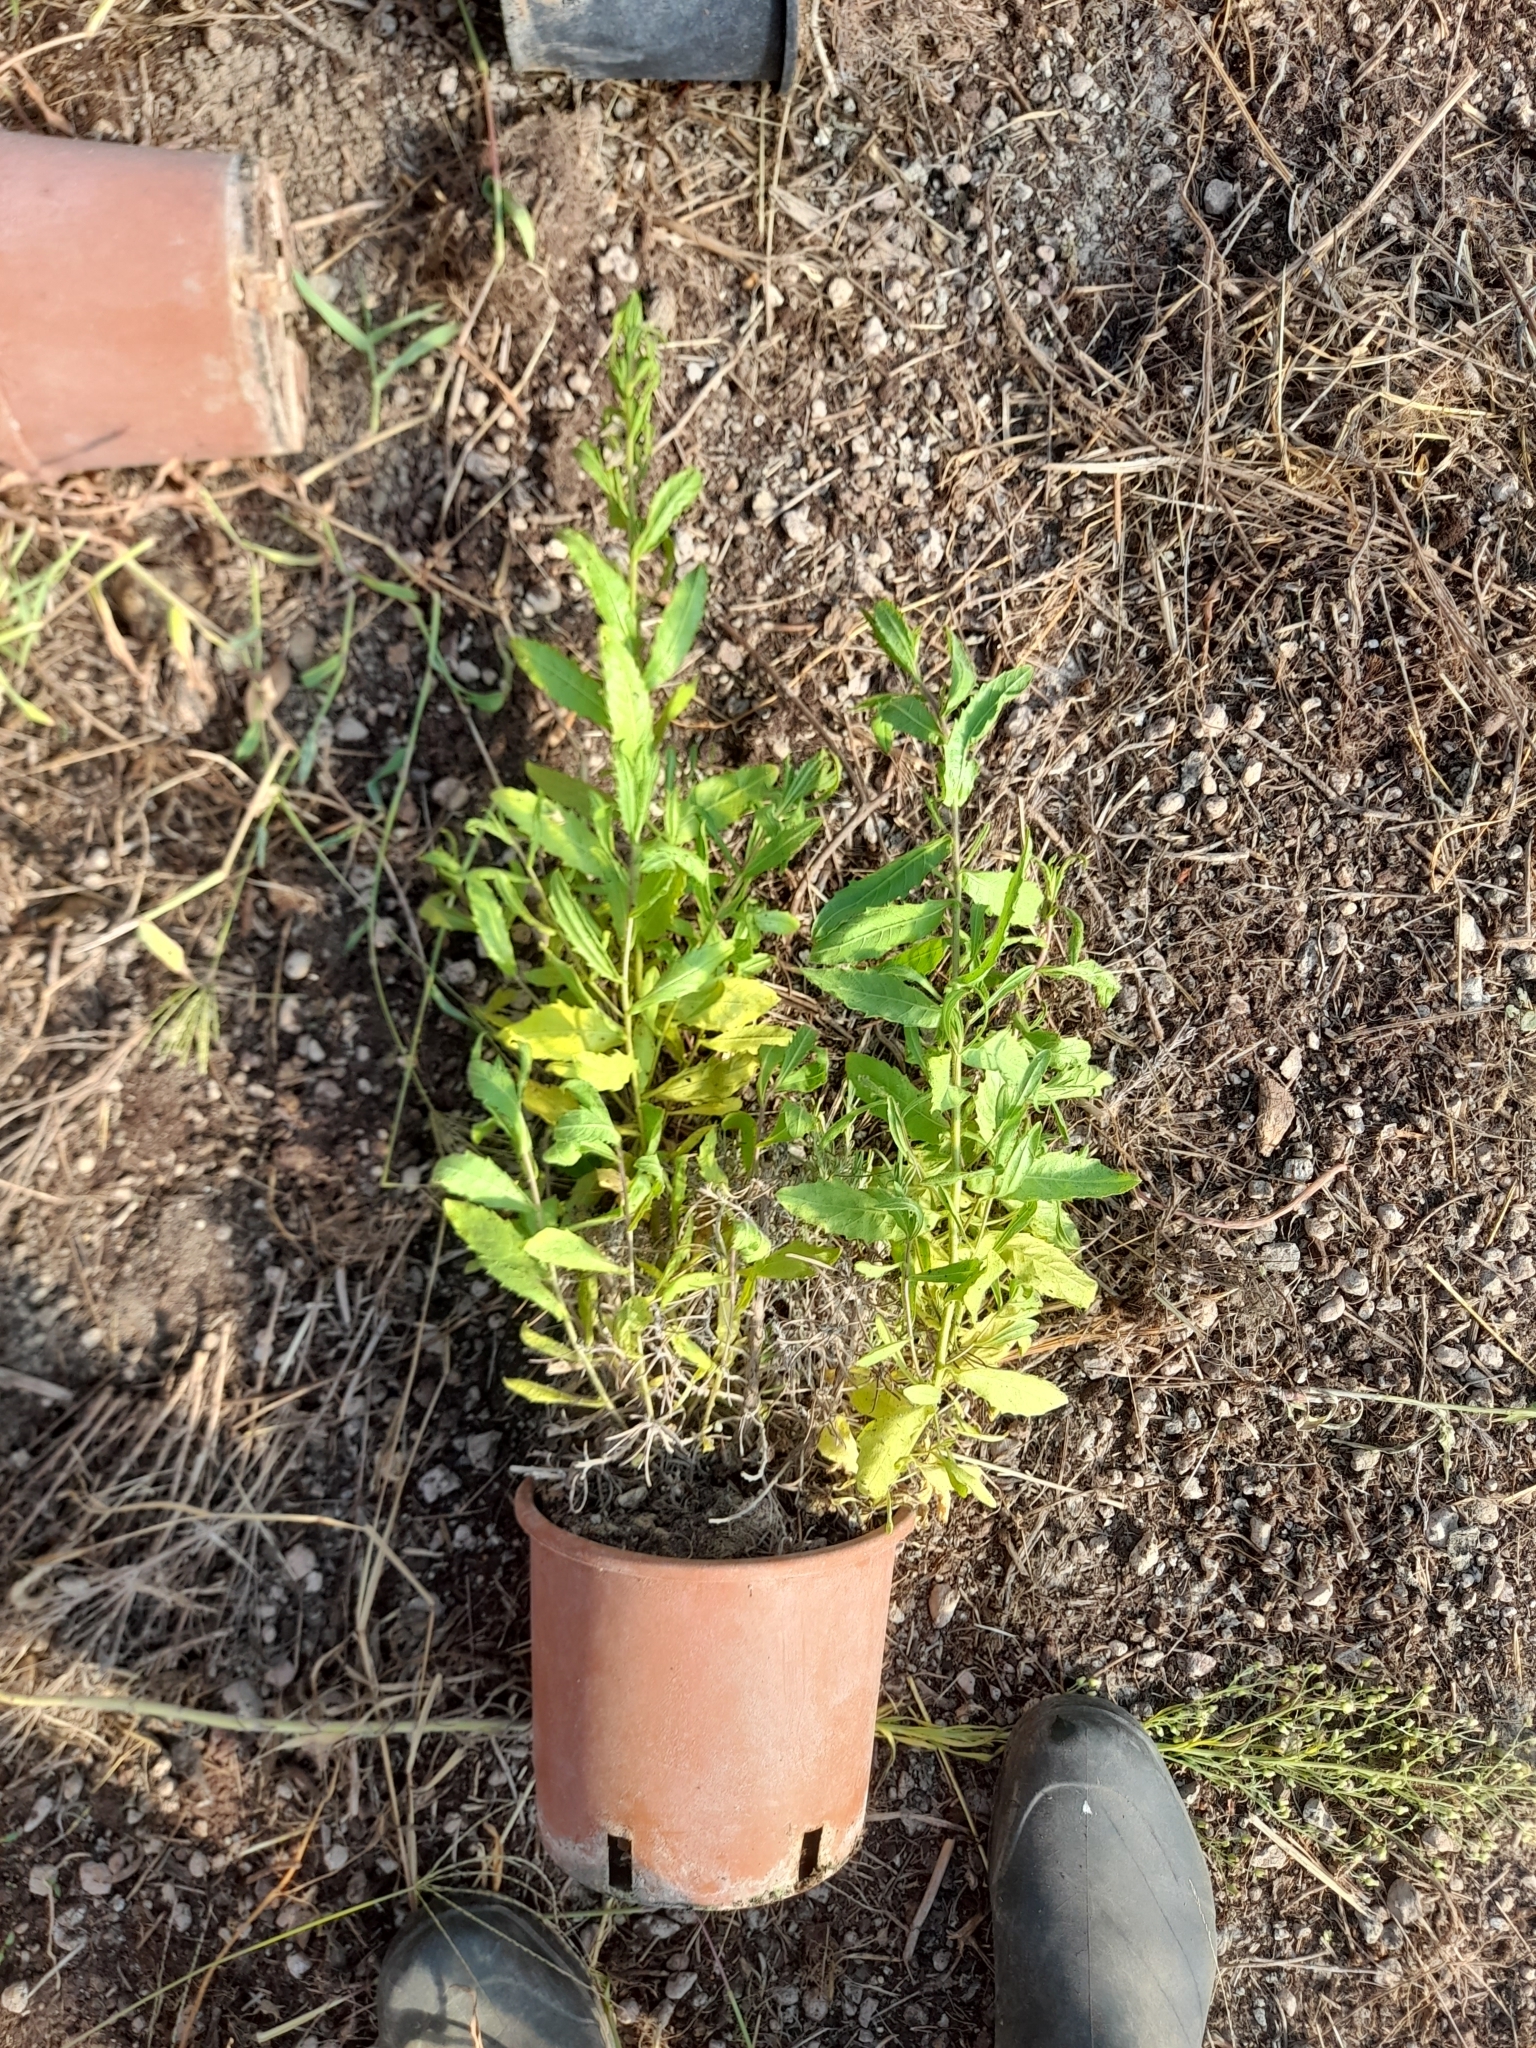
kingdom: Plantae
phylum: Tracheophyta
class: Magnoliopsida
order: Asterales
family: Asteraceae
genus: Dittrichia
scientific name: Dittrichia viscosa
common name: Woody fleabane
